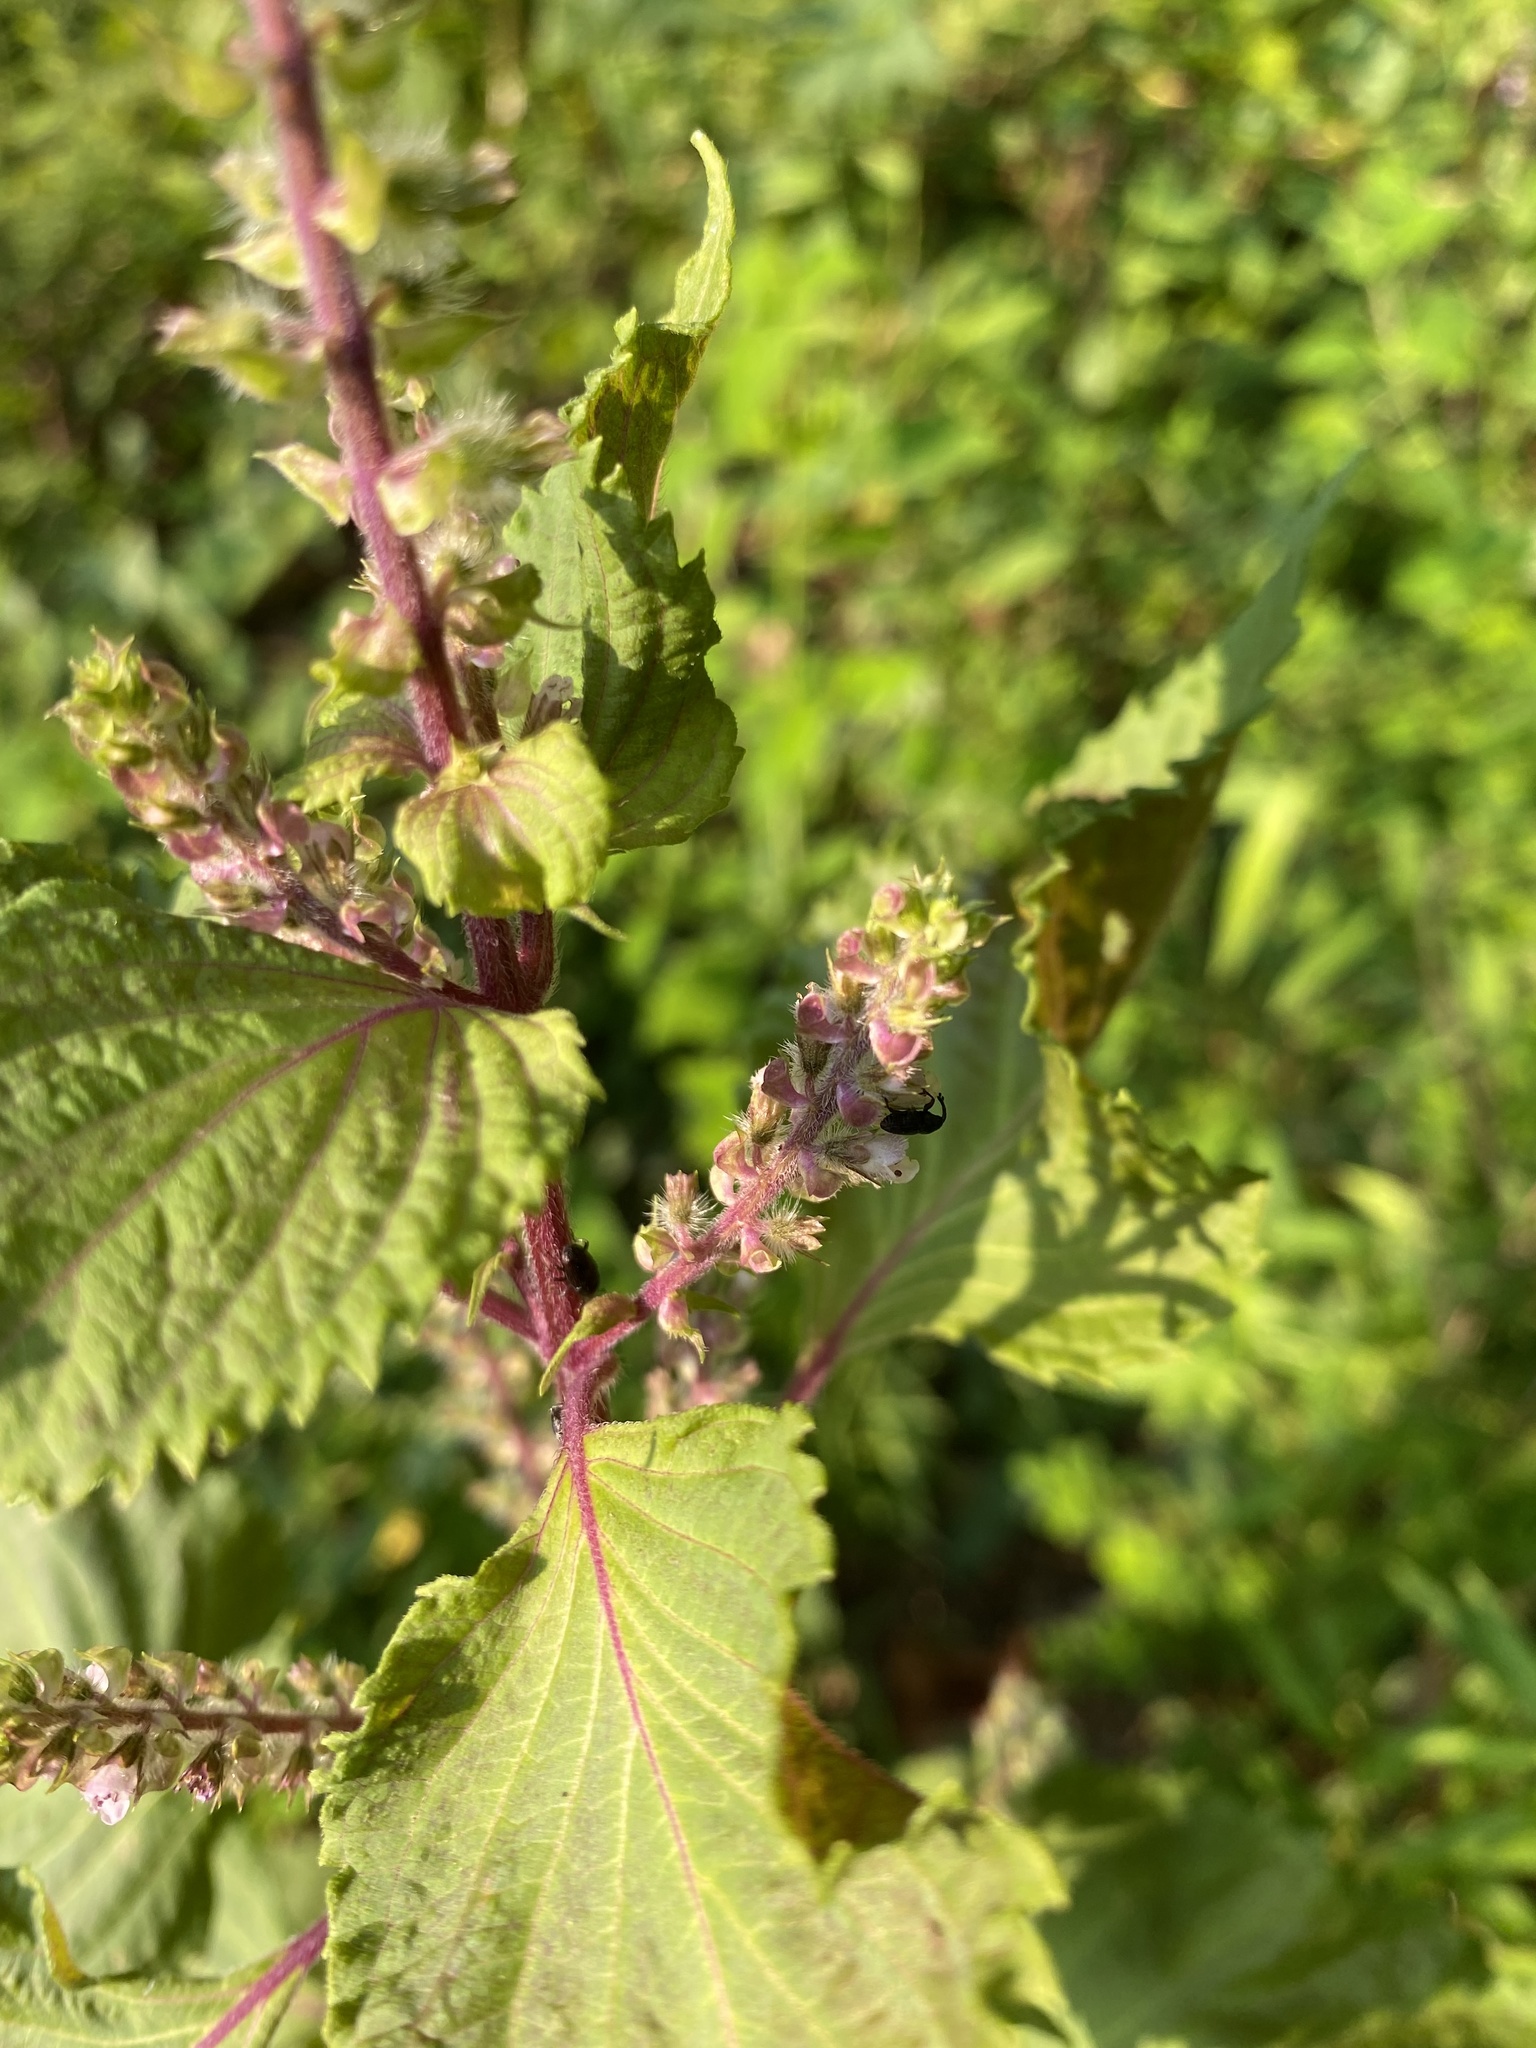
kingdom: Plantae
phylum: Tracheophyta
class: Magnoliopsida
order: Lamiales
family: Lamiaceae
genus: Perilla
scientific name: Perilla frutescens
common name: Perilla
